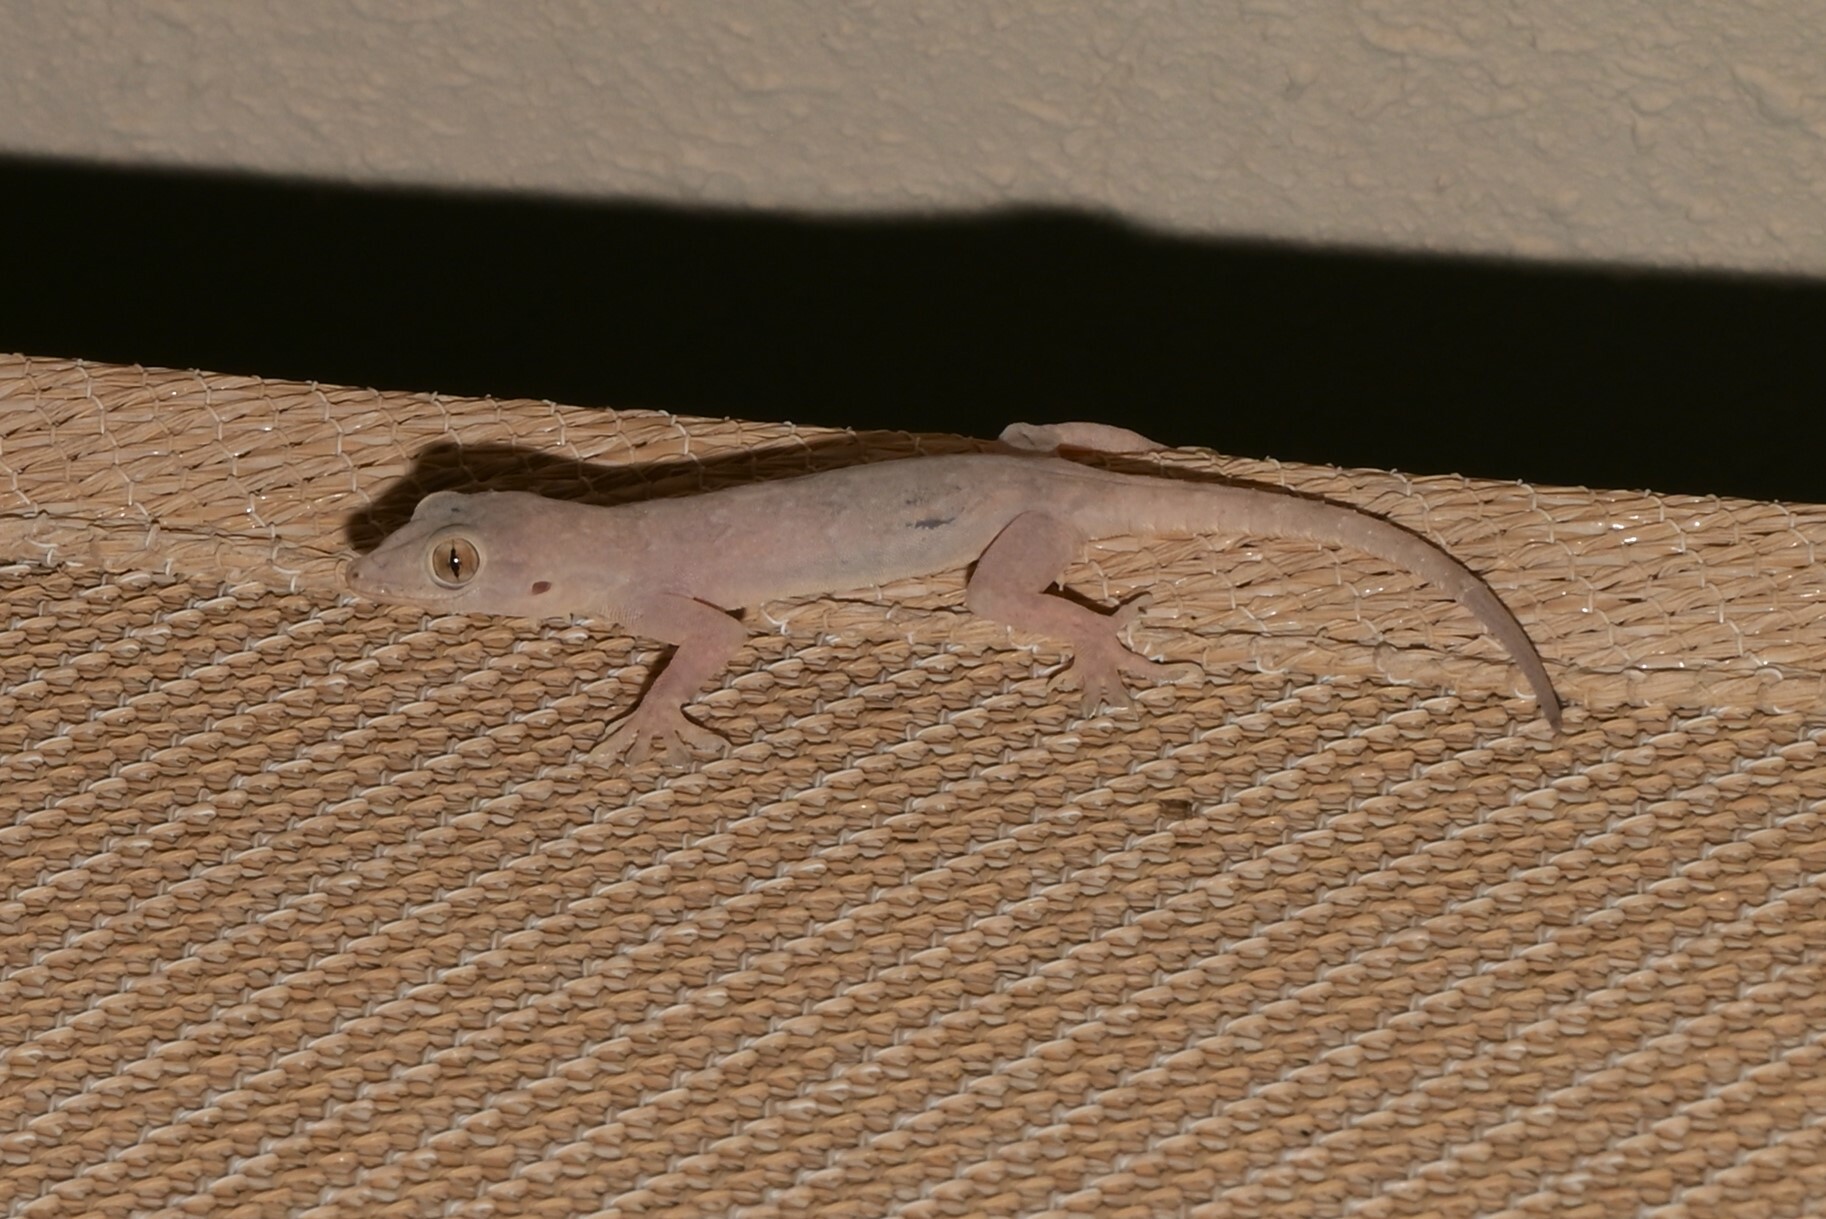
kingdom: Animalia
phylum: Chordata
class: Squamata
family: Gekkonidae
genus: Hemidactylus
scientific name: Hemidactylus flaviviridis
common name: Northern house gecko
